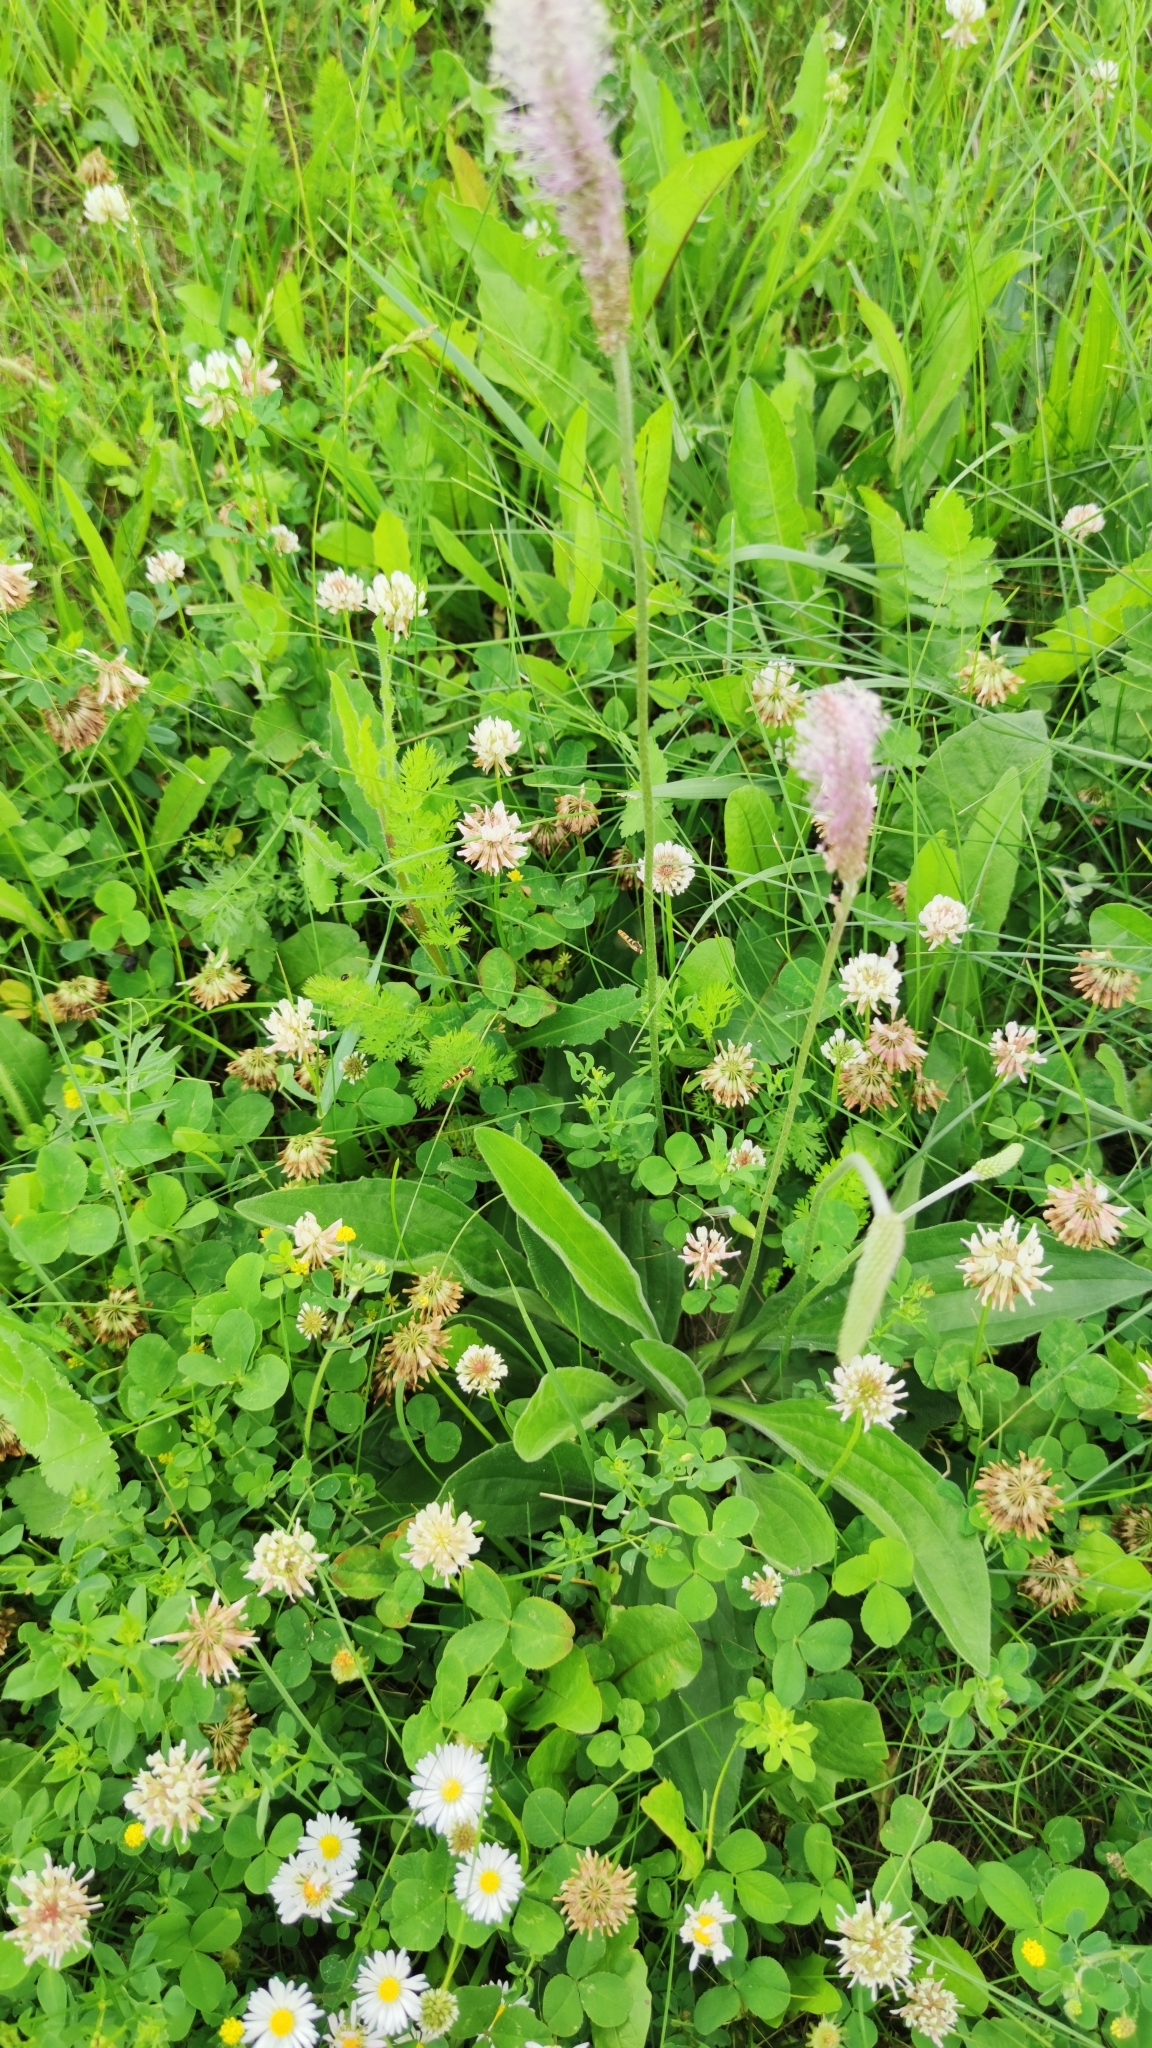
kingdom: Plantae
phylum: Tracheophyta
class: Magnoliopsida
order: Lamiales
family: Plantaginaceae
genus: Plantago
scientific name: Plantago media
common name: Hoary plantain
